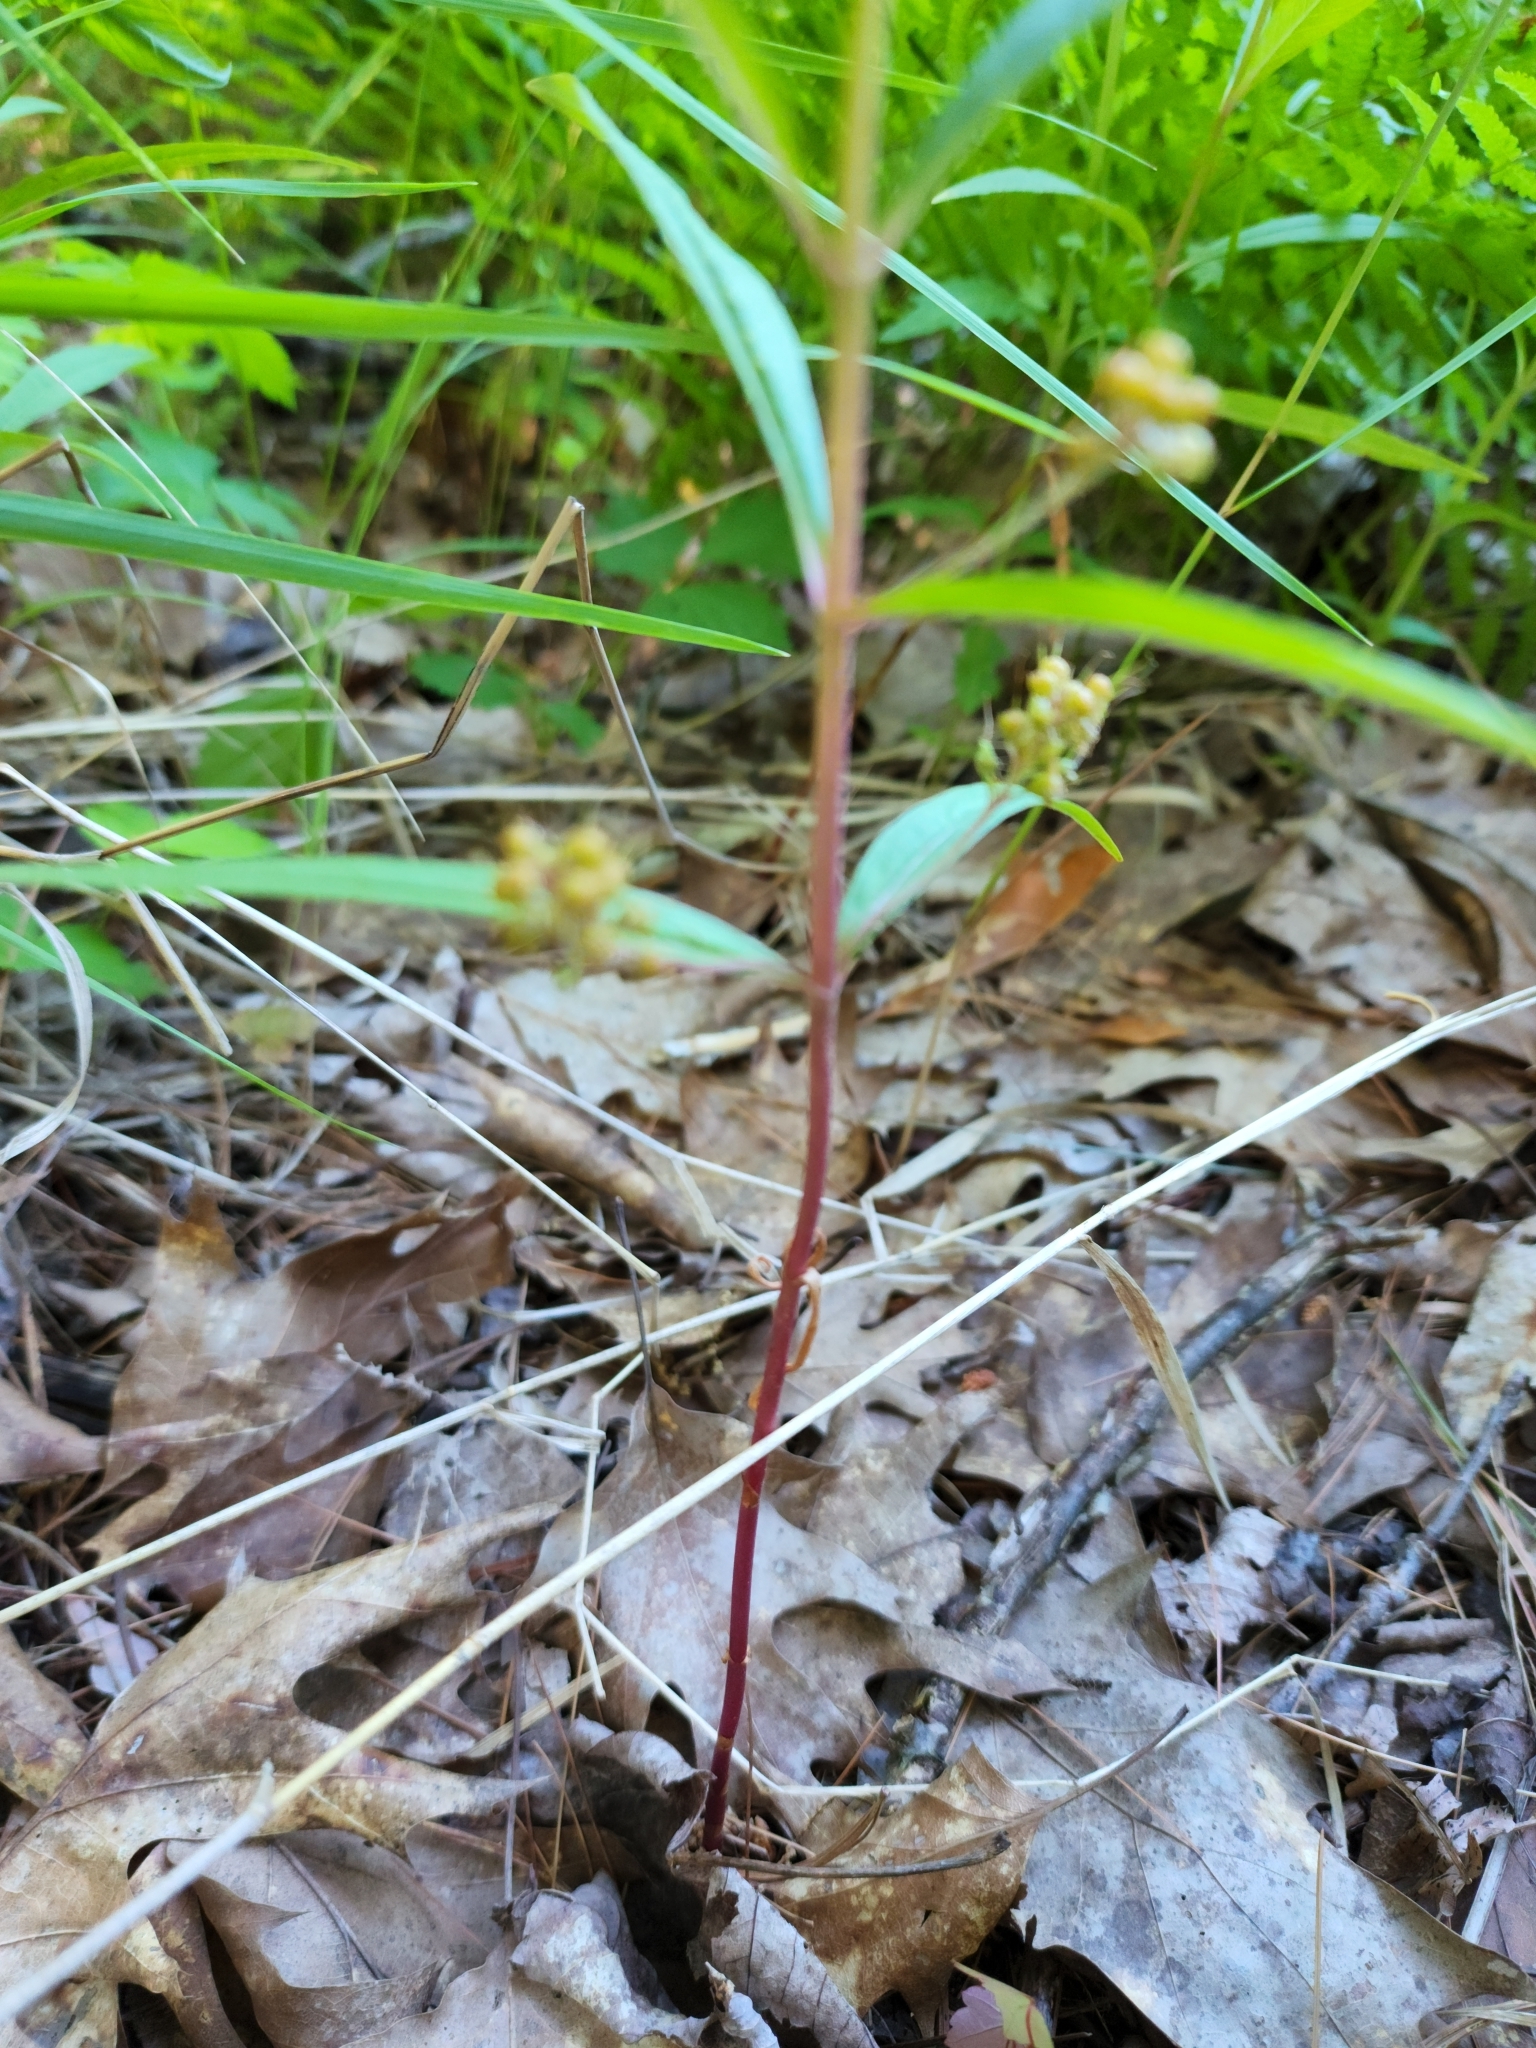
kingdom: Plantae
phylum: Tracheophyta
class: Magnoliopsida
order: Ericales
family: Primulaceae
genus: Lysimachia
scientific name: Lysimachia thyrsiflora
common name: Tufted loosestrife
